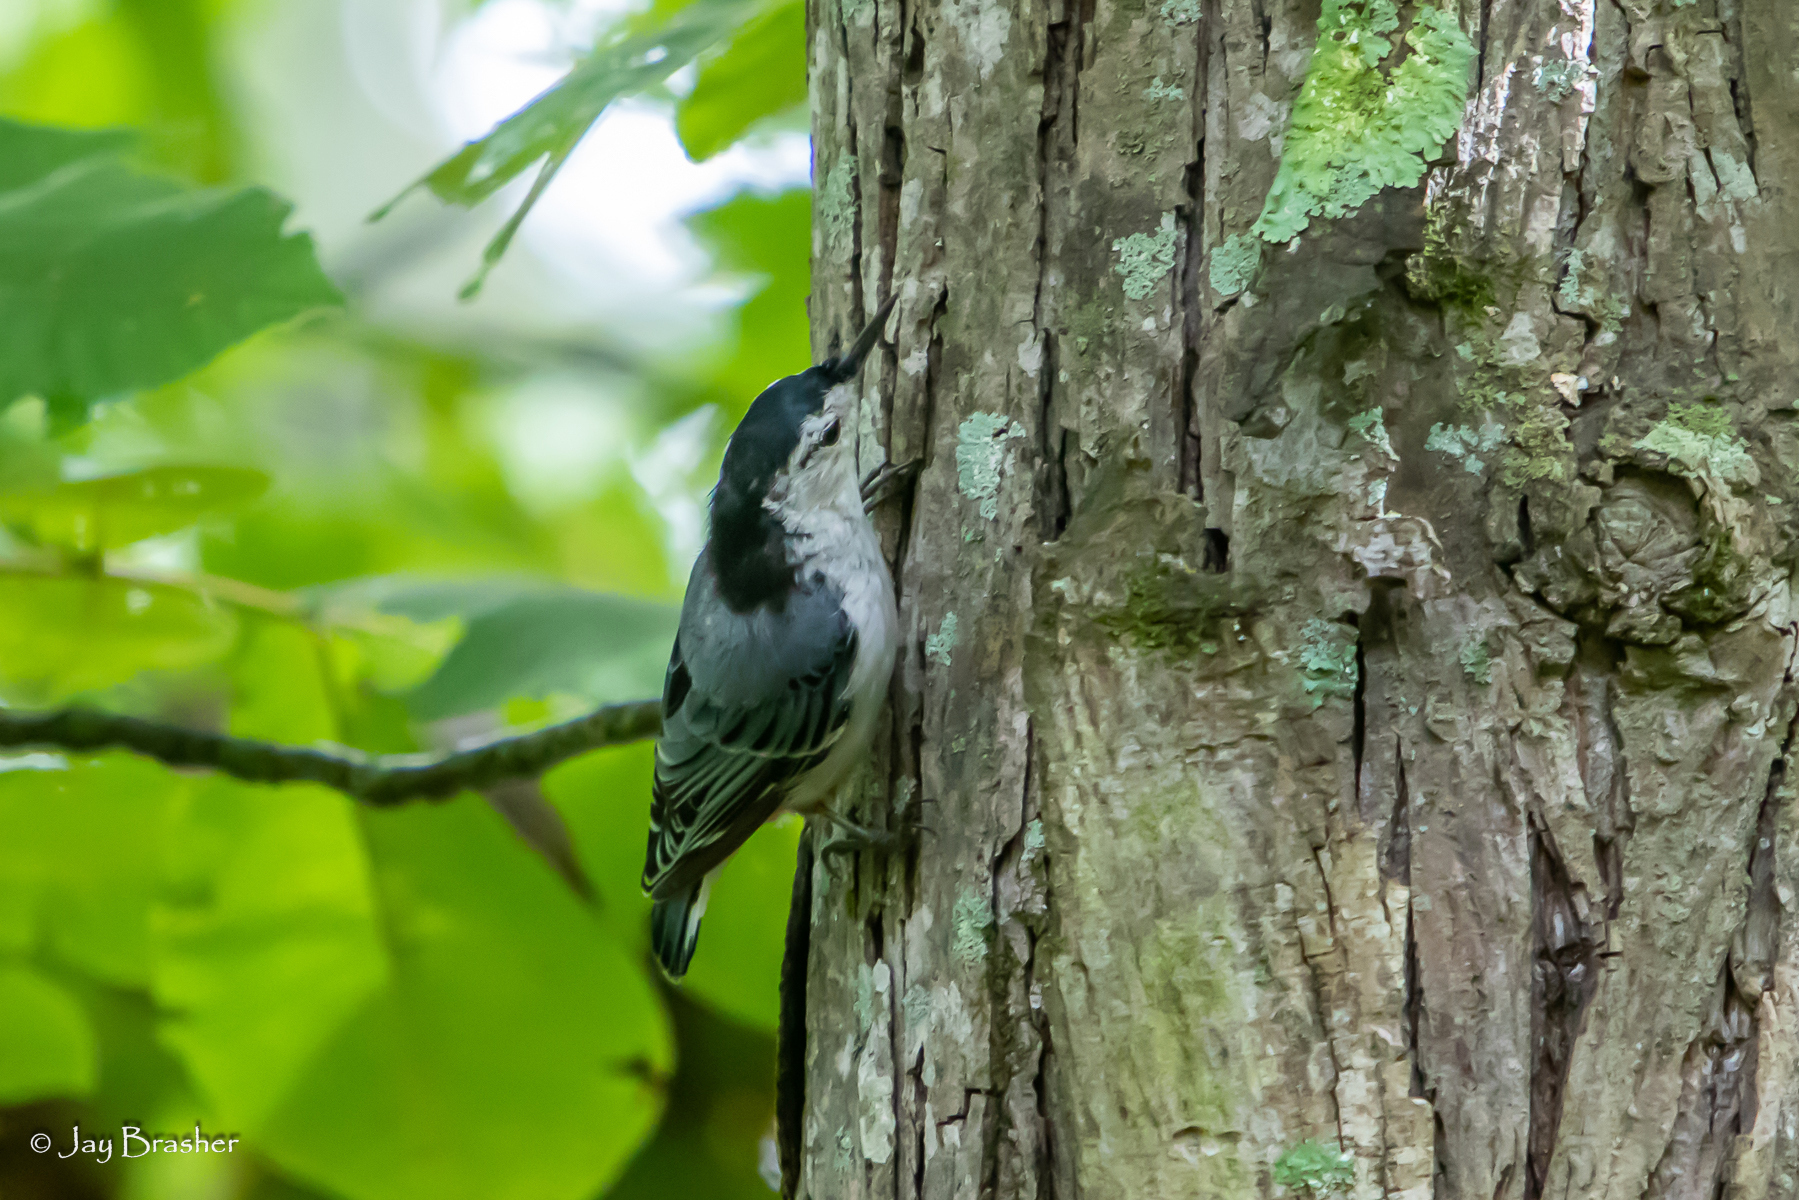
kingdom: Animalia
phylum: Chordata
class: Aves
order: Passeriformes
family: Sittidae
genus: Sitta
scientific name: Sitta carolinensis
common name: White-breasted nuthatch
